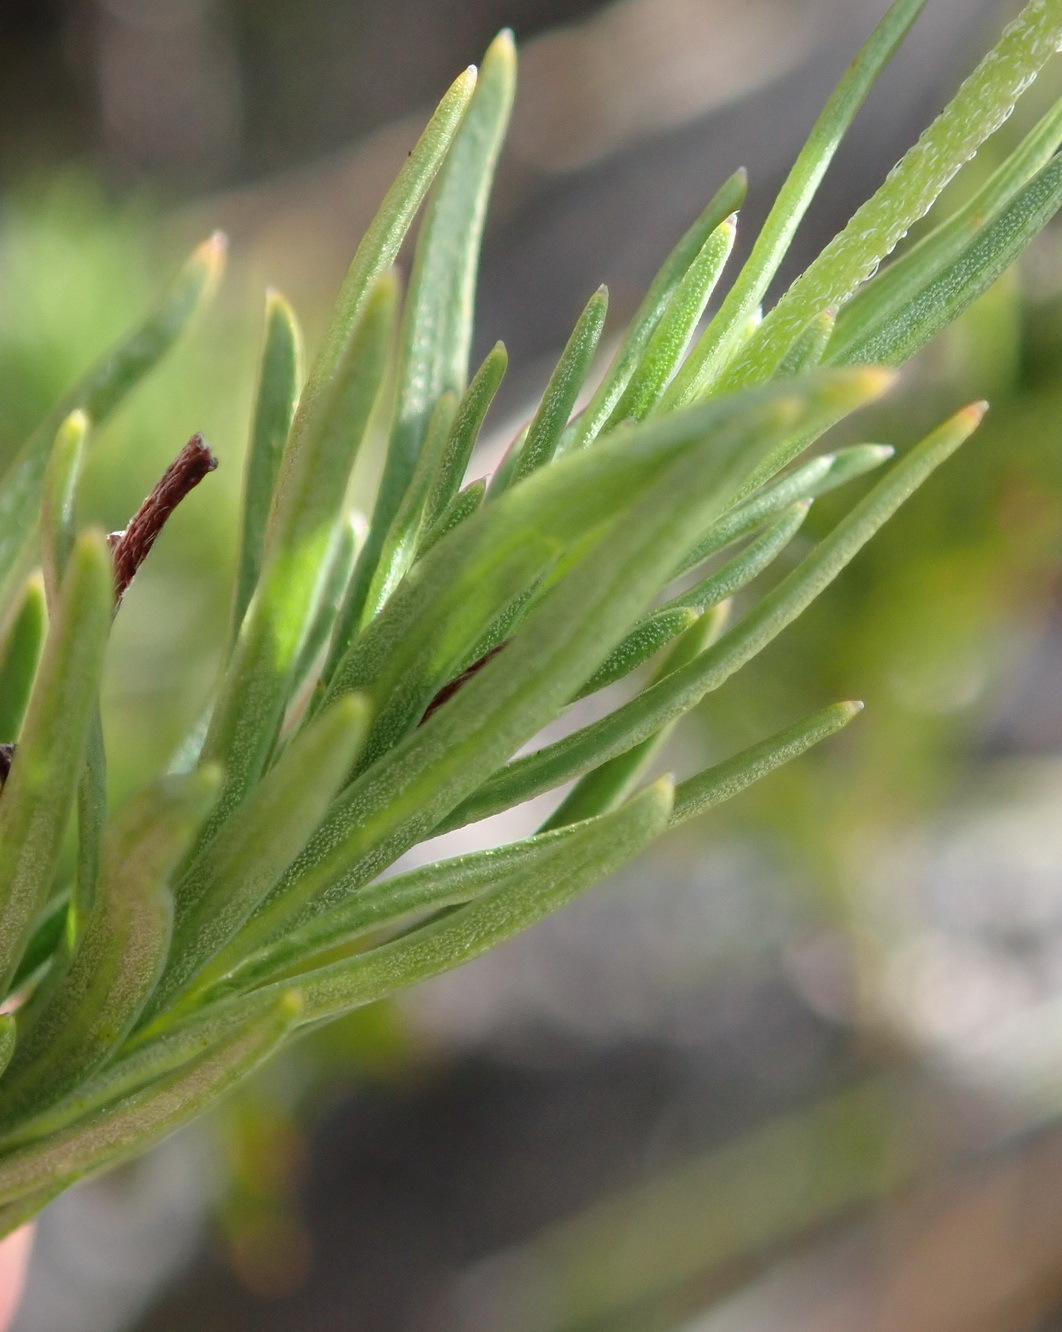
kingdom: Plantae
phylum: Tracheophyta
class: Magnoliopsida
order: Asterales
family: Campanulaceae
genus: Lobelia
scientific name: Lobelia pinifolia
